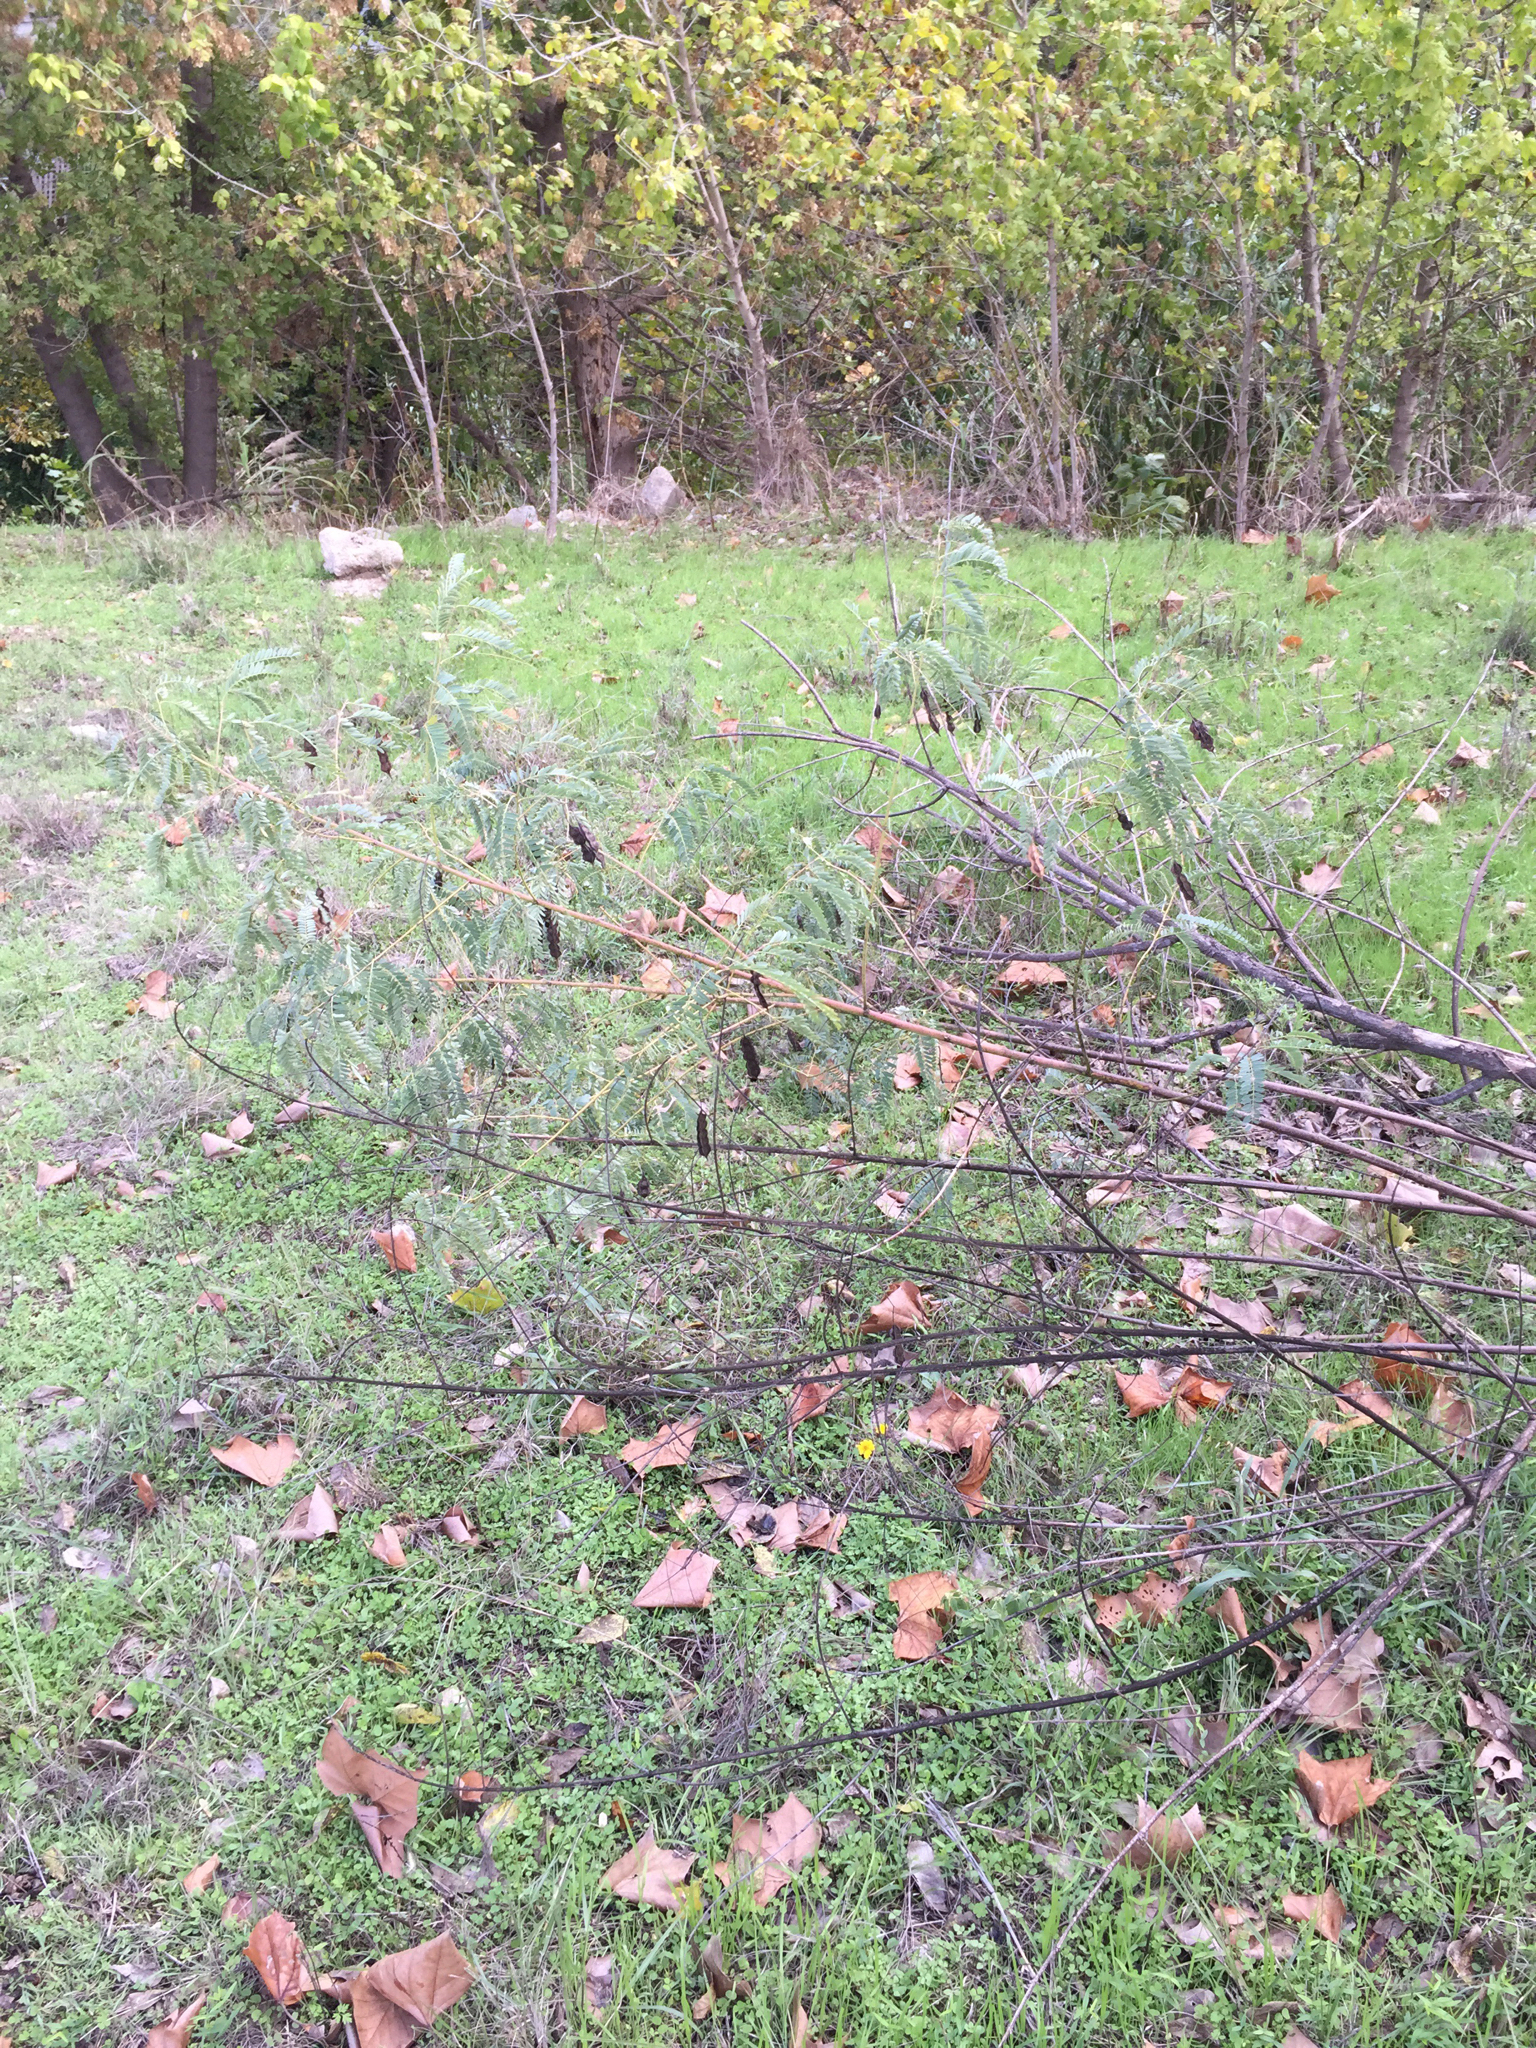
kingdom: Plantae
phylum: Tracheophyta
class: Magnoliopsida
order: Fabales
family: Fabaceae
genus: Sesbania
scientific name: Sesbania drummondii
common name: Poison-bean
